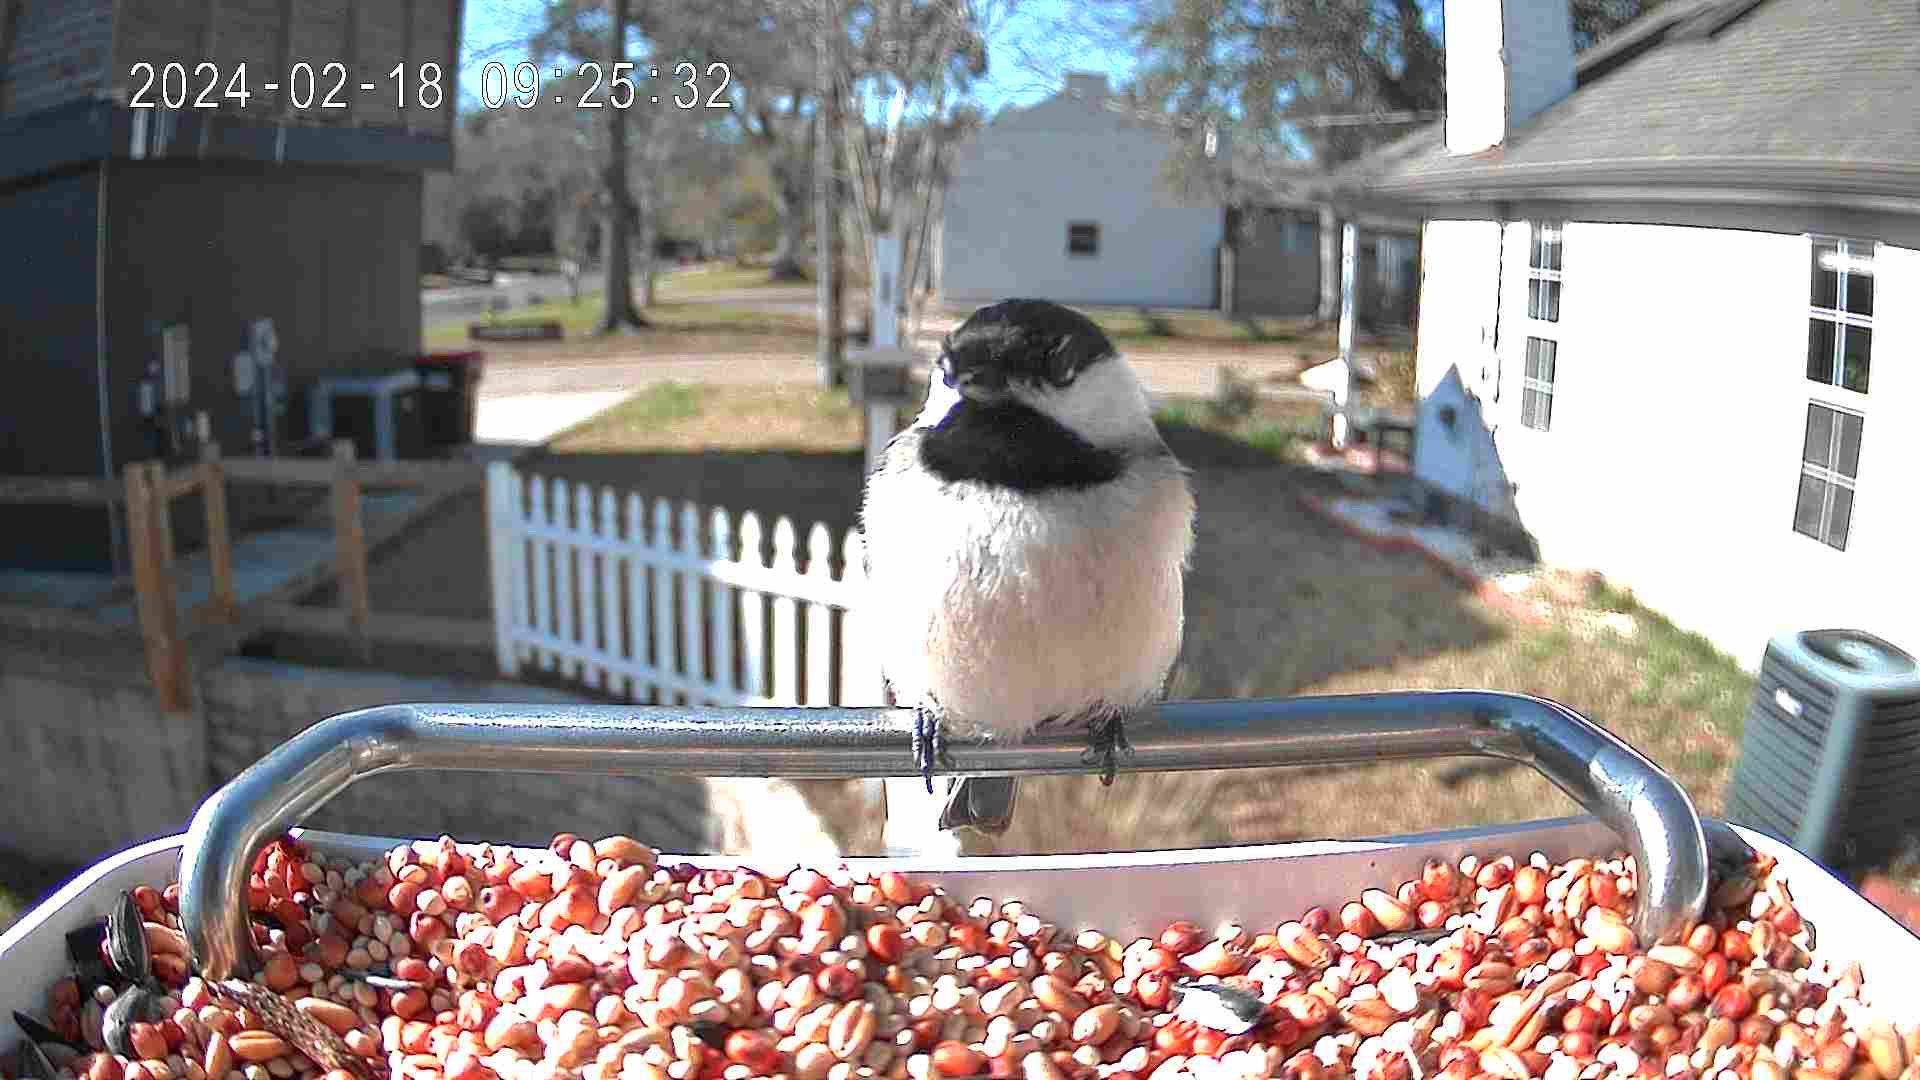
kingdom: Animalia
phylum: Chordata
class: Aves
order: Passeriformes
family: Paridae
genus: Poecile
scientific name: Poecile carolinensis
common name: Carolina chickadee
